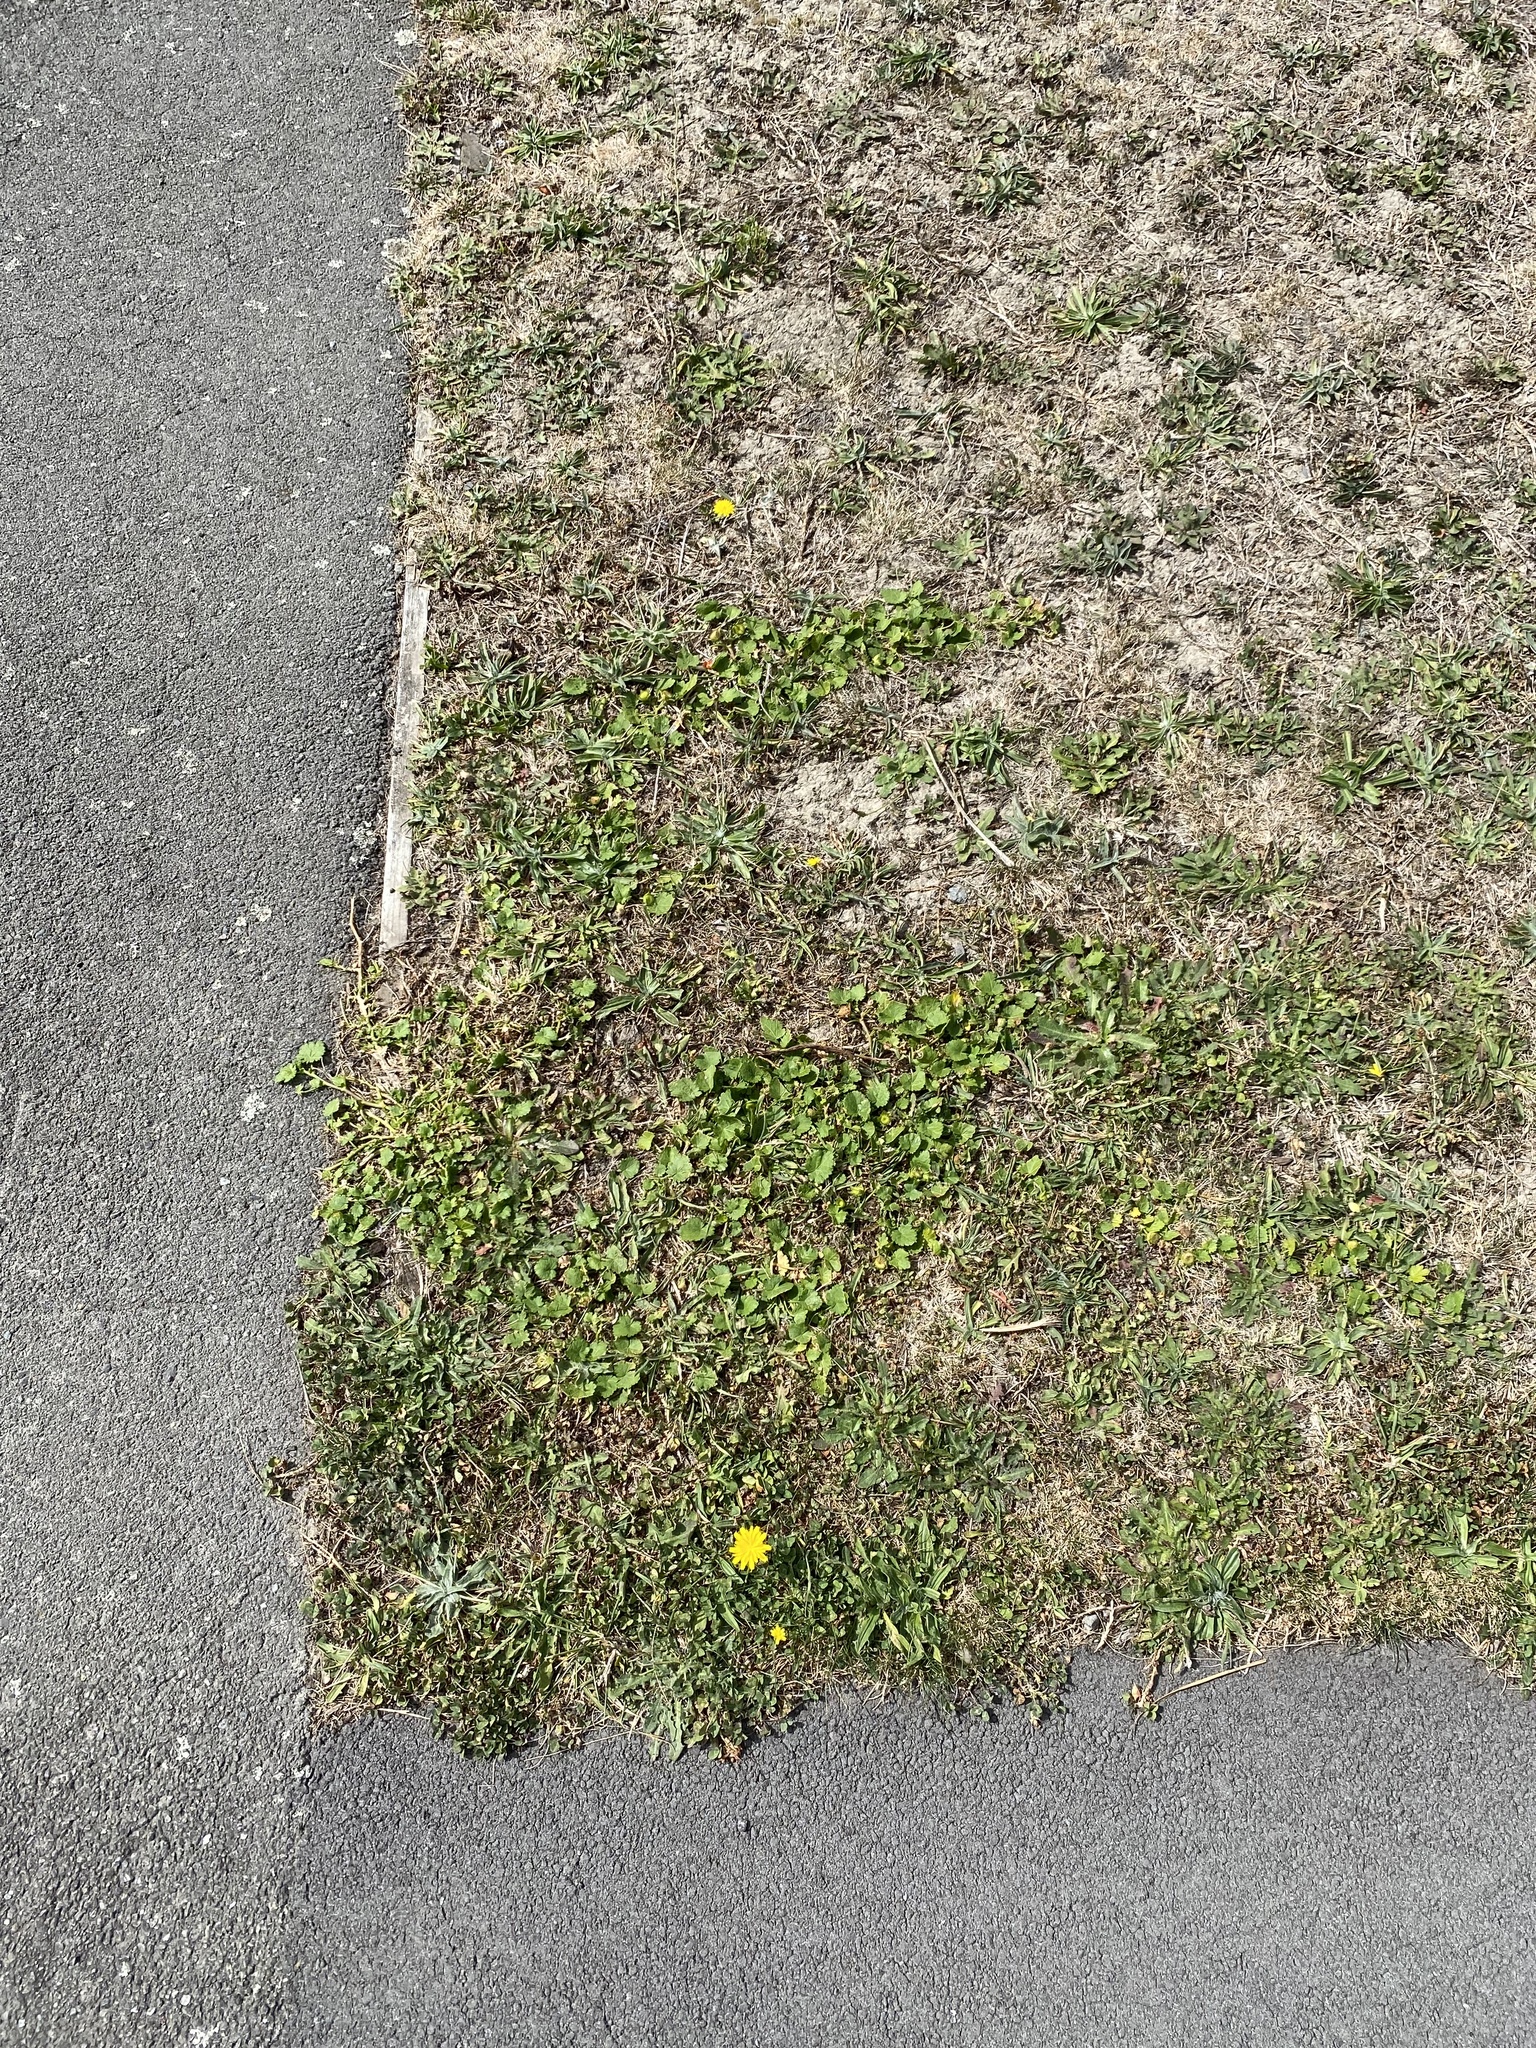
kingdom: Plantae
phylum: Tracheophyta
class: Magnoliopsida
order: Malvales
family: Malvaceae
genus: Modiola
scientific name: Modiola caroliniana
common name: Carolina bristlemallow
